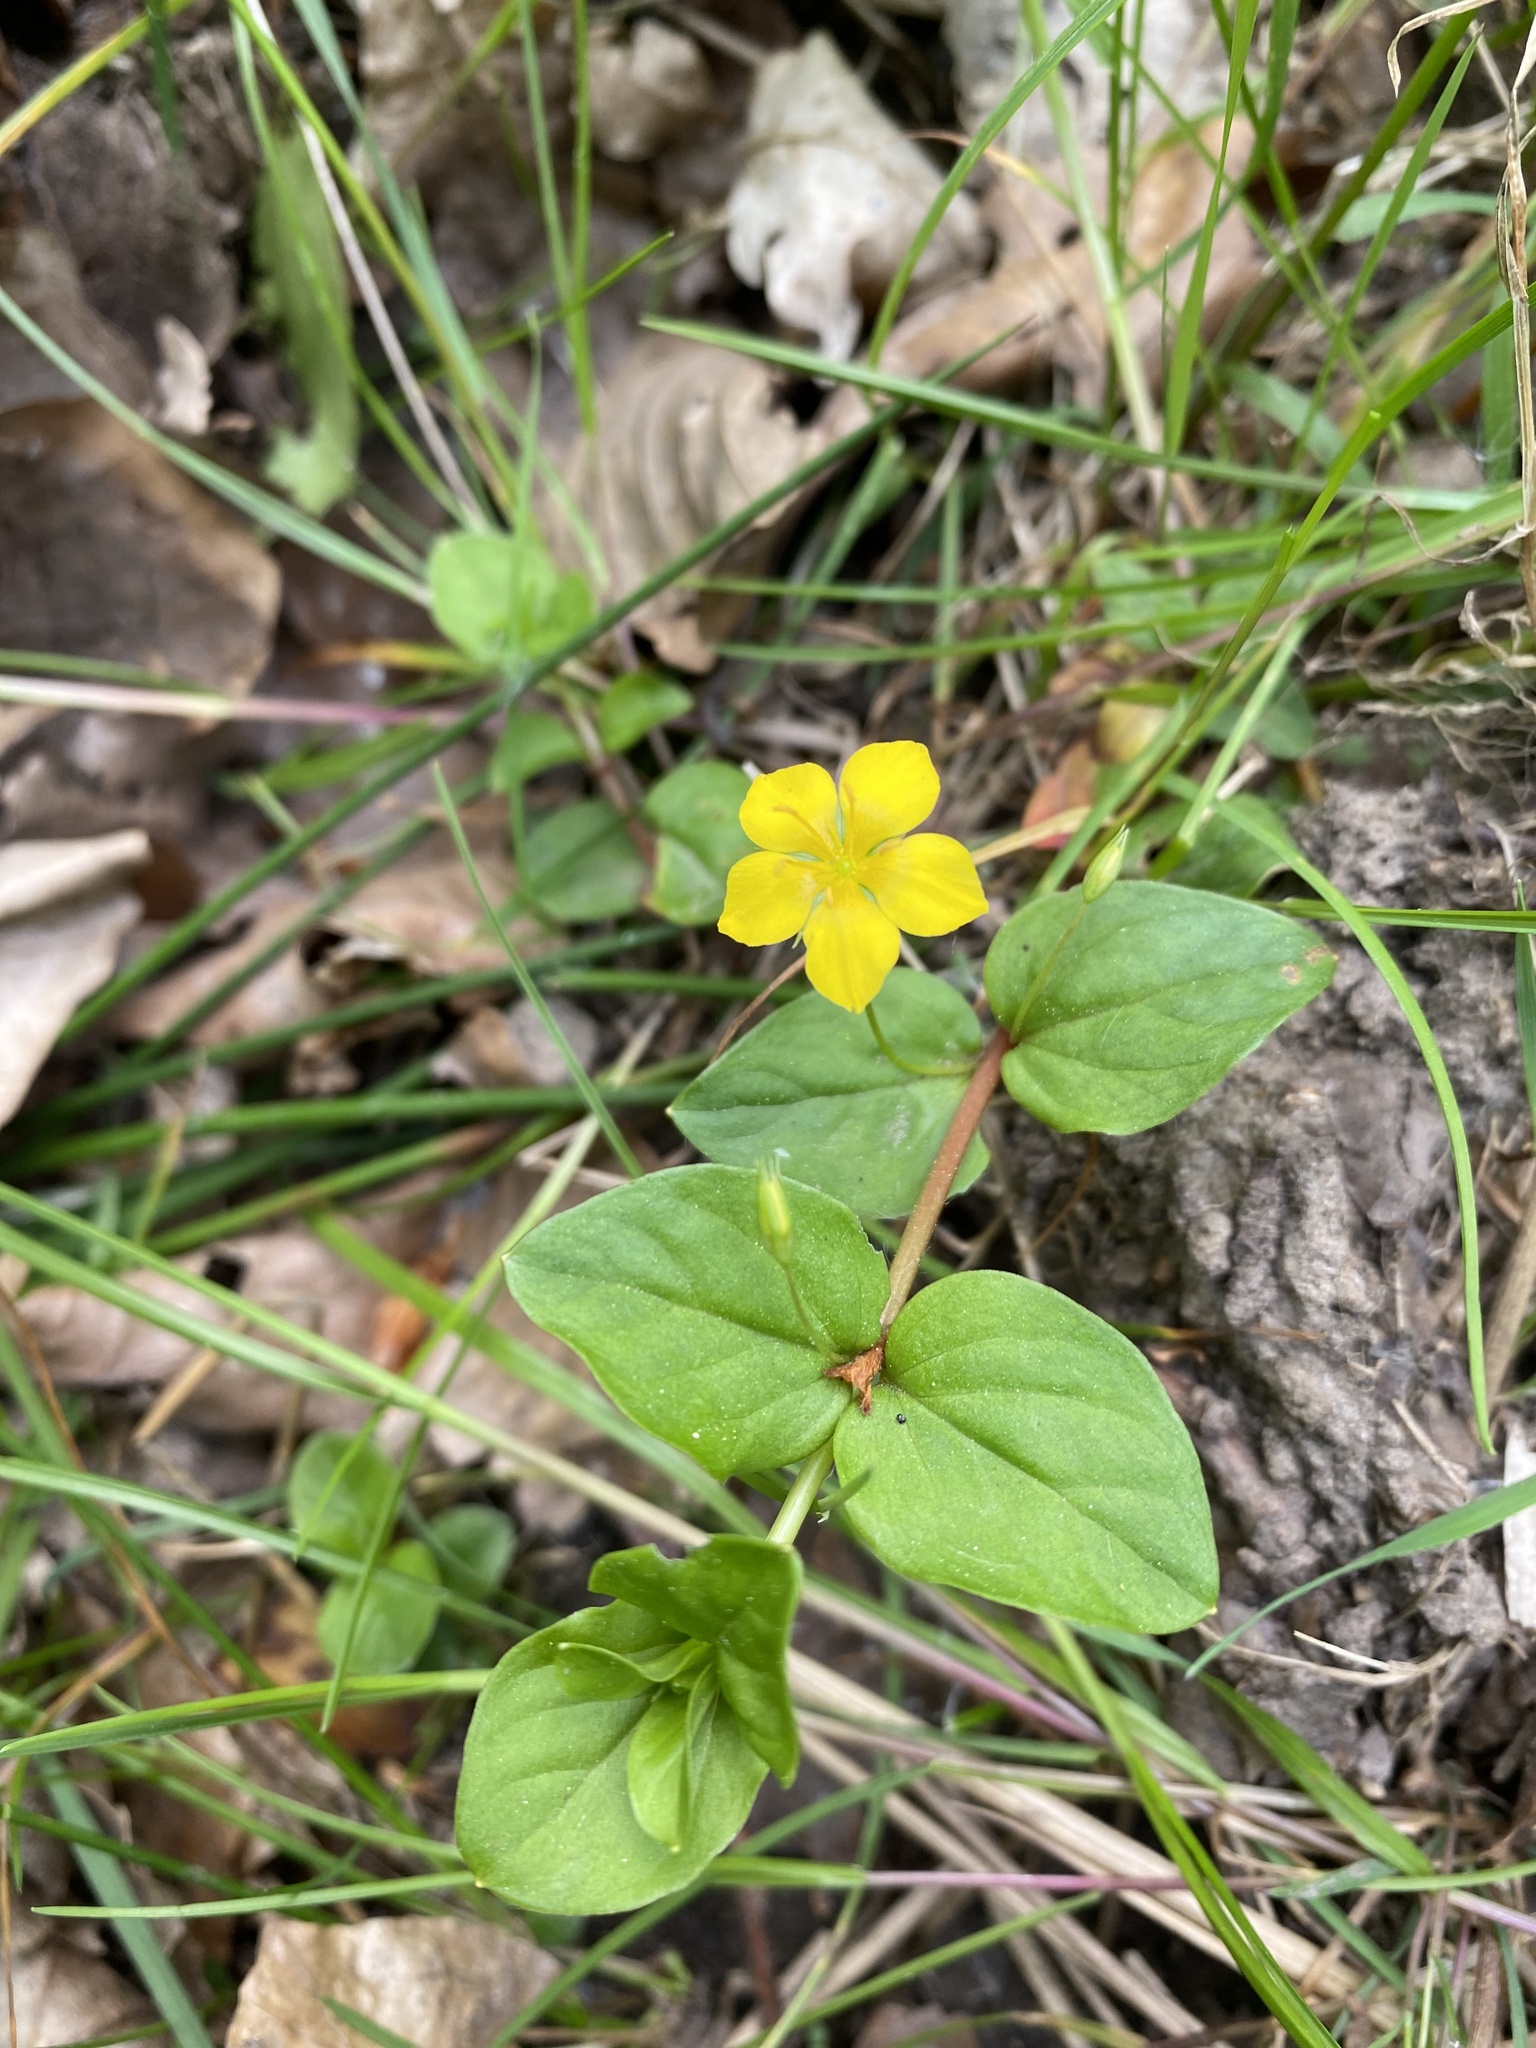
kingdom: Plantae
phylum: Tracheophyta
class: Magnoliopsida
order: Ericales
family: Primulaceae
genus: Lysimachia
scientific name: Lysimachia nemorum
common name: Yellow pimpernel
